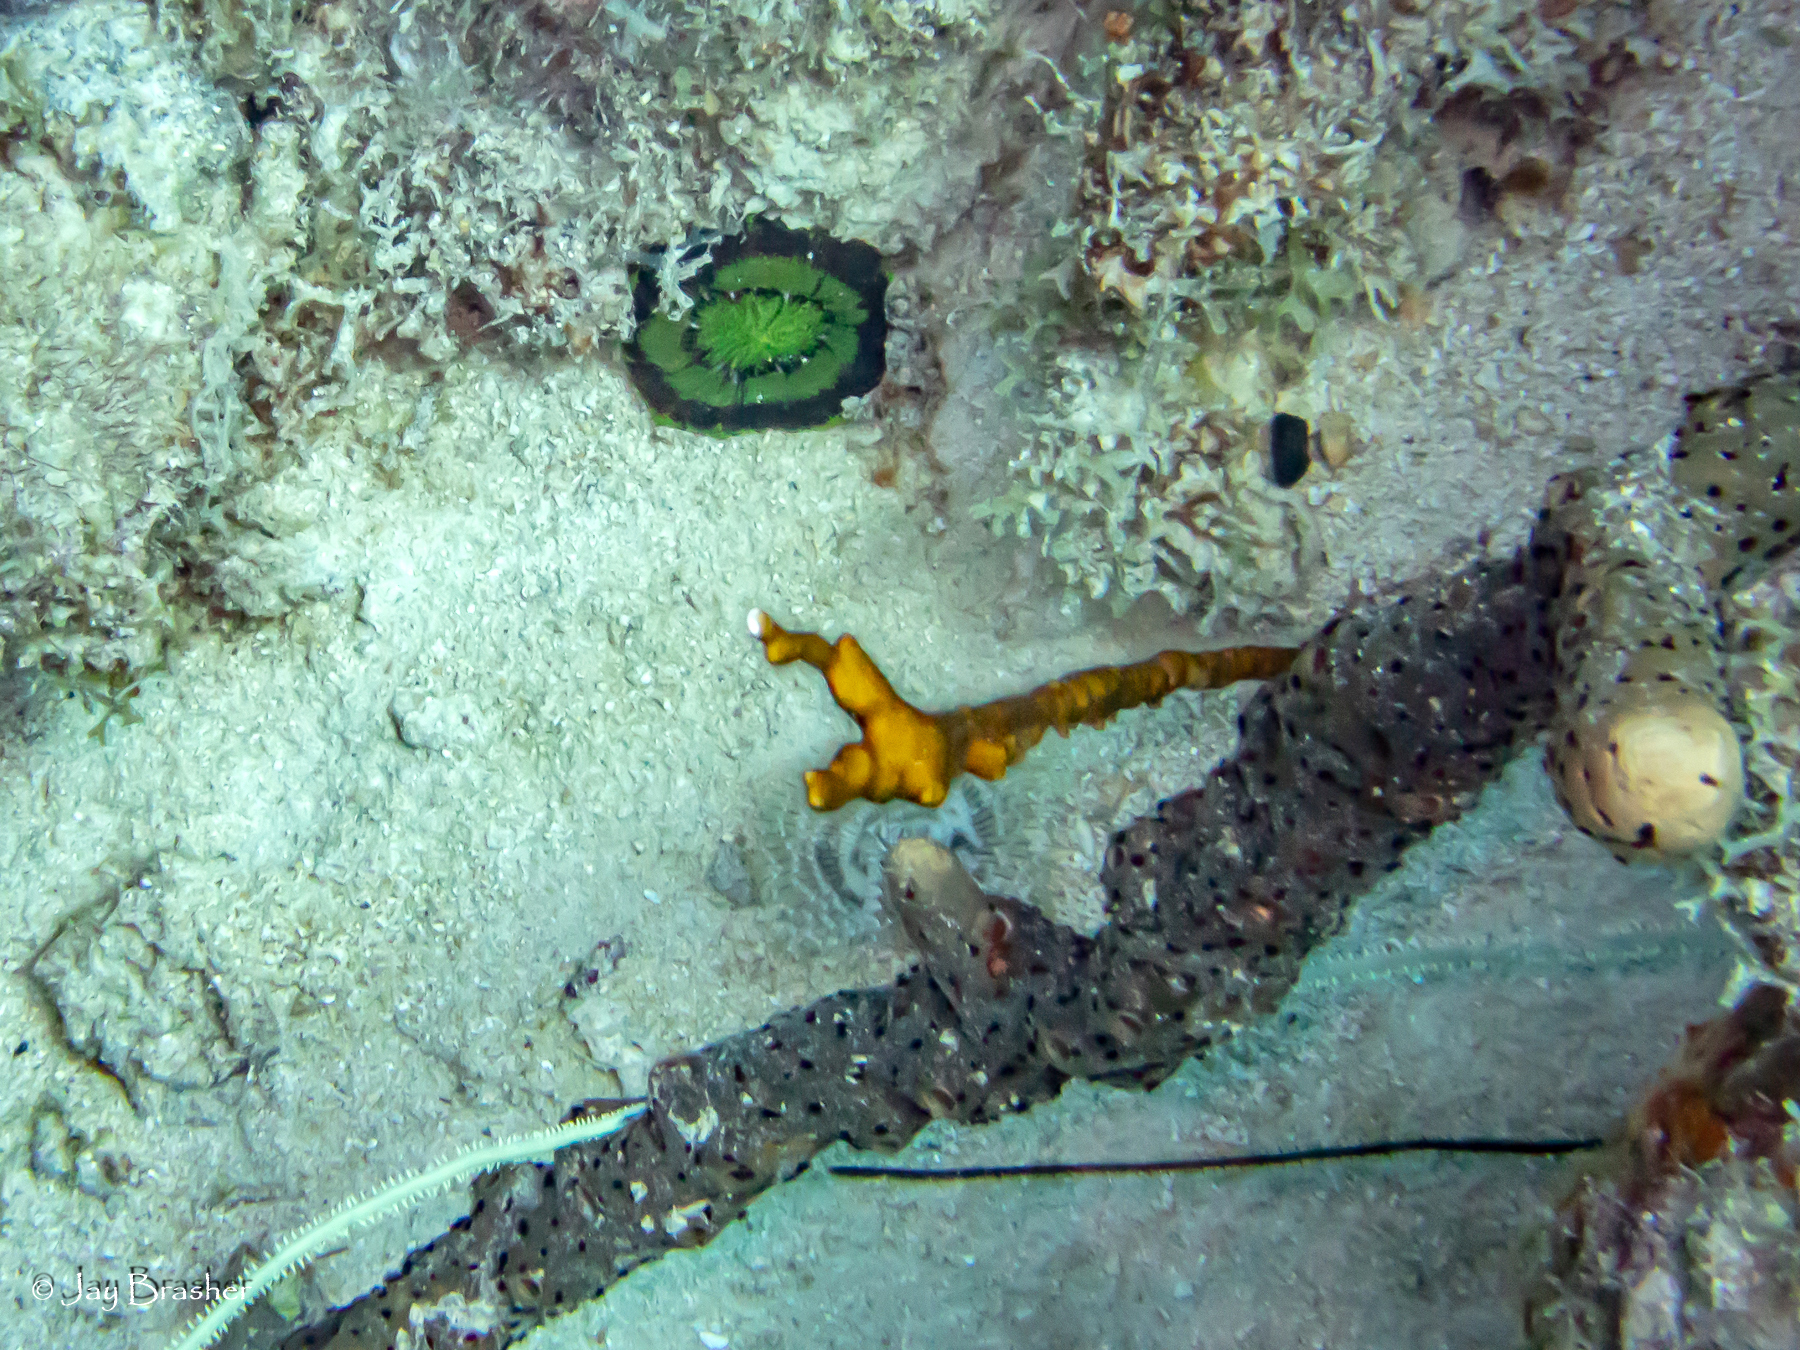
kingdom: Animalia
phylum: Porifera
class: Demospongiae
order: Agelasida
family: Agelasidae
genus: Agelas
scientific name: Agelas conifera
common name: Brown tube sponge
